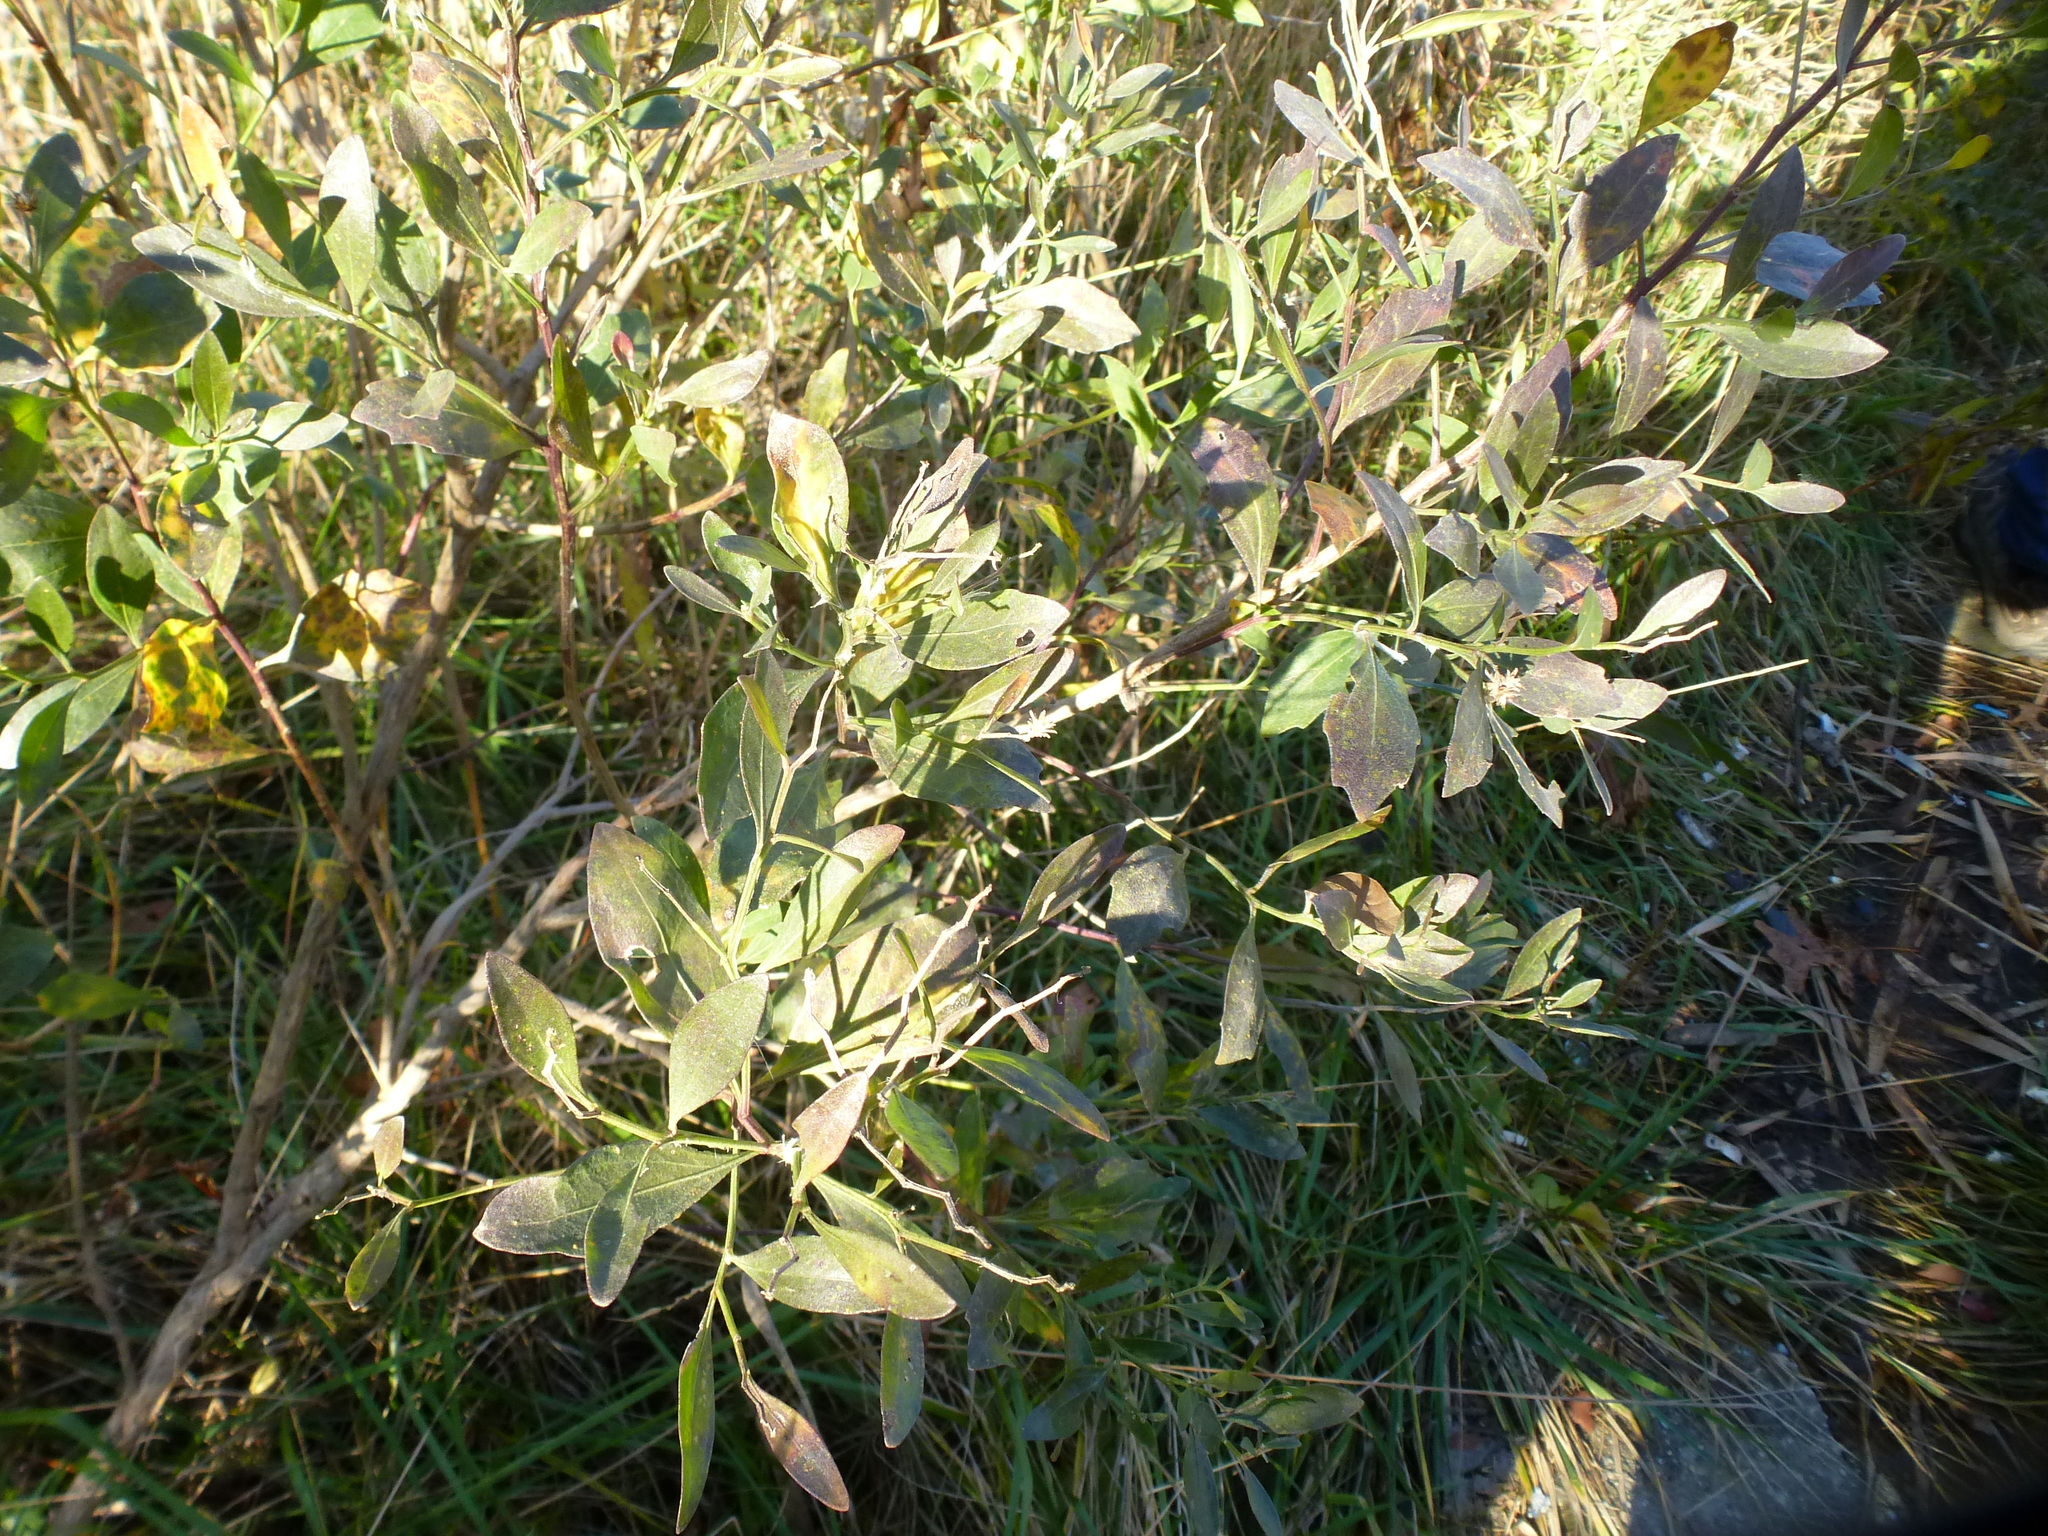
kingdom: Plantae
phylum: Tracheophyta
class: Magnoliopsida
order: Asterales
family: Asteraceae
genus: Baccharis
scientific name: Baccharis halimifolia
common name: Eastern baccharis
